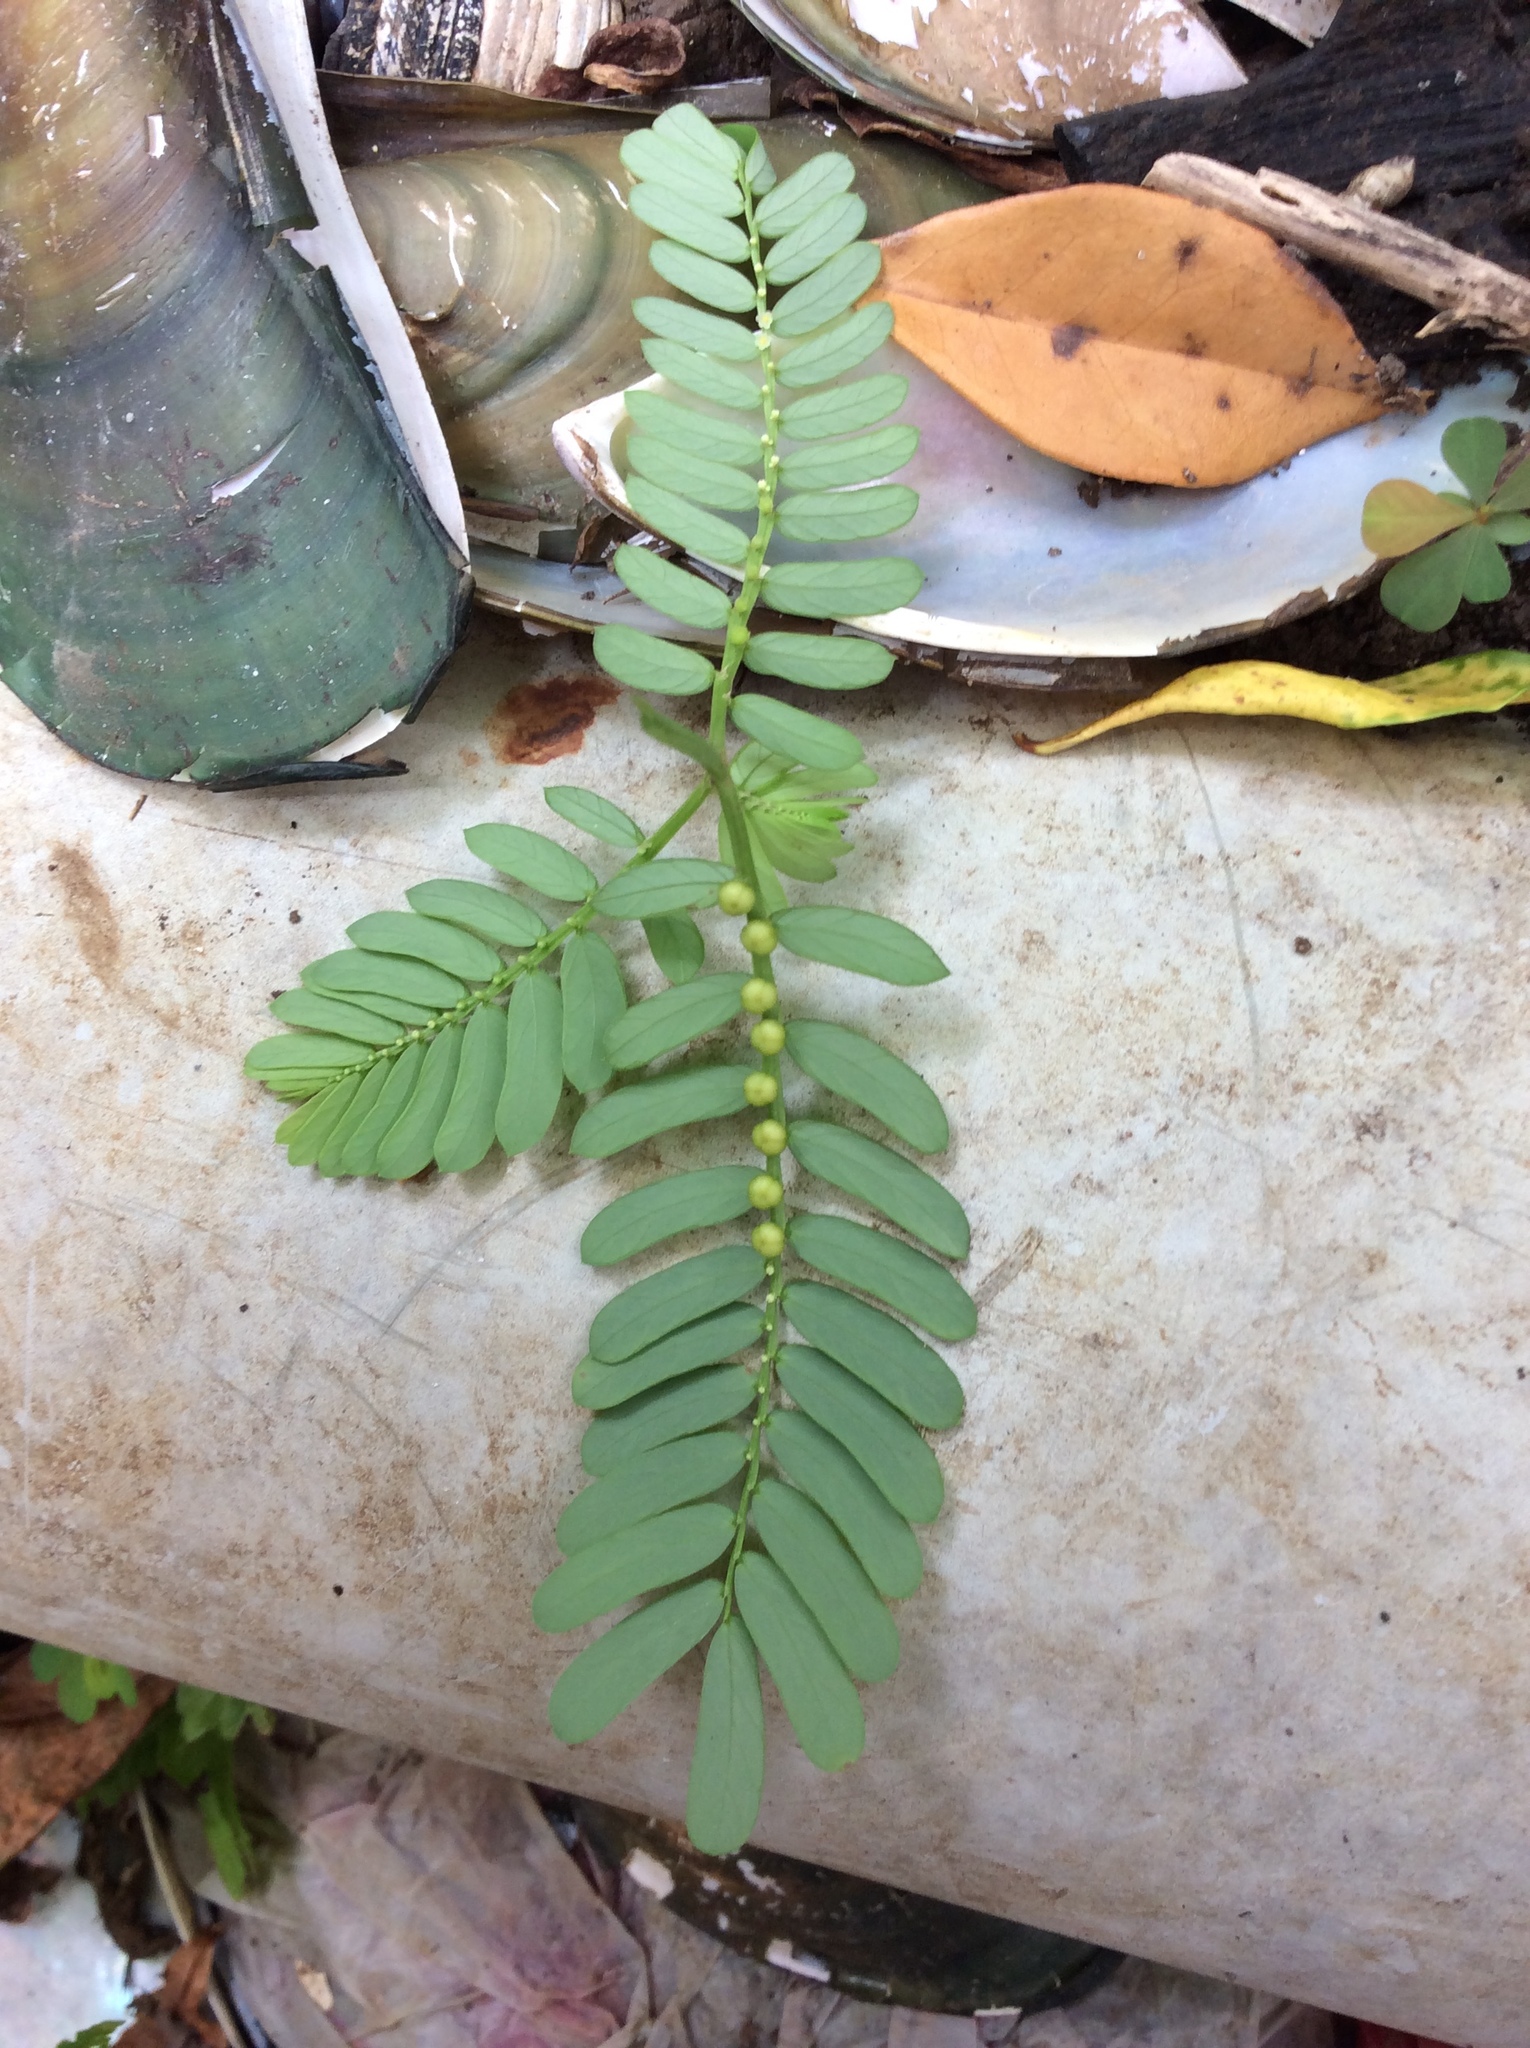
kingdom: Plantae
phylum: Tracheophyta
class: Magnoliopsida
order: Malpighiales
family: Phyllanthaceae
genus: Phyllanthus
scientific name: Phyllanthus urinaria
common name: Chamber bitter
